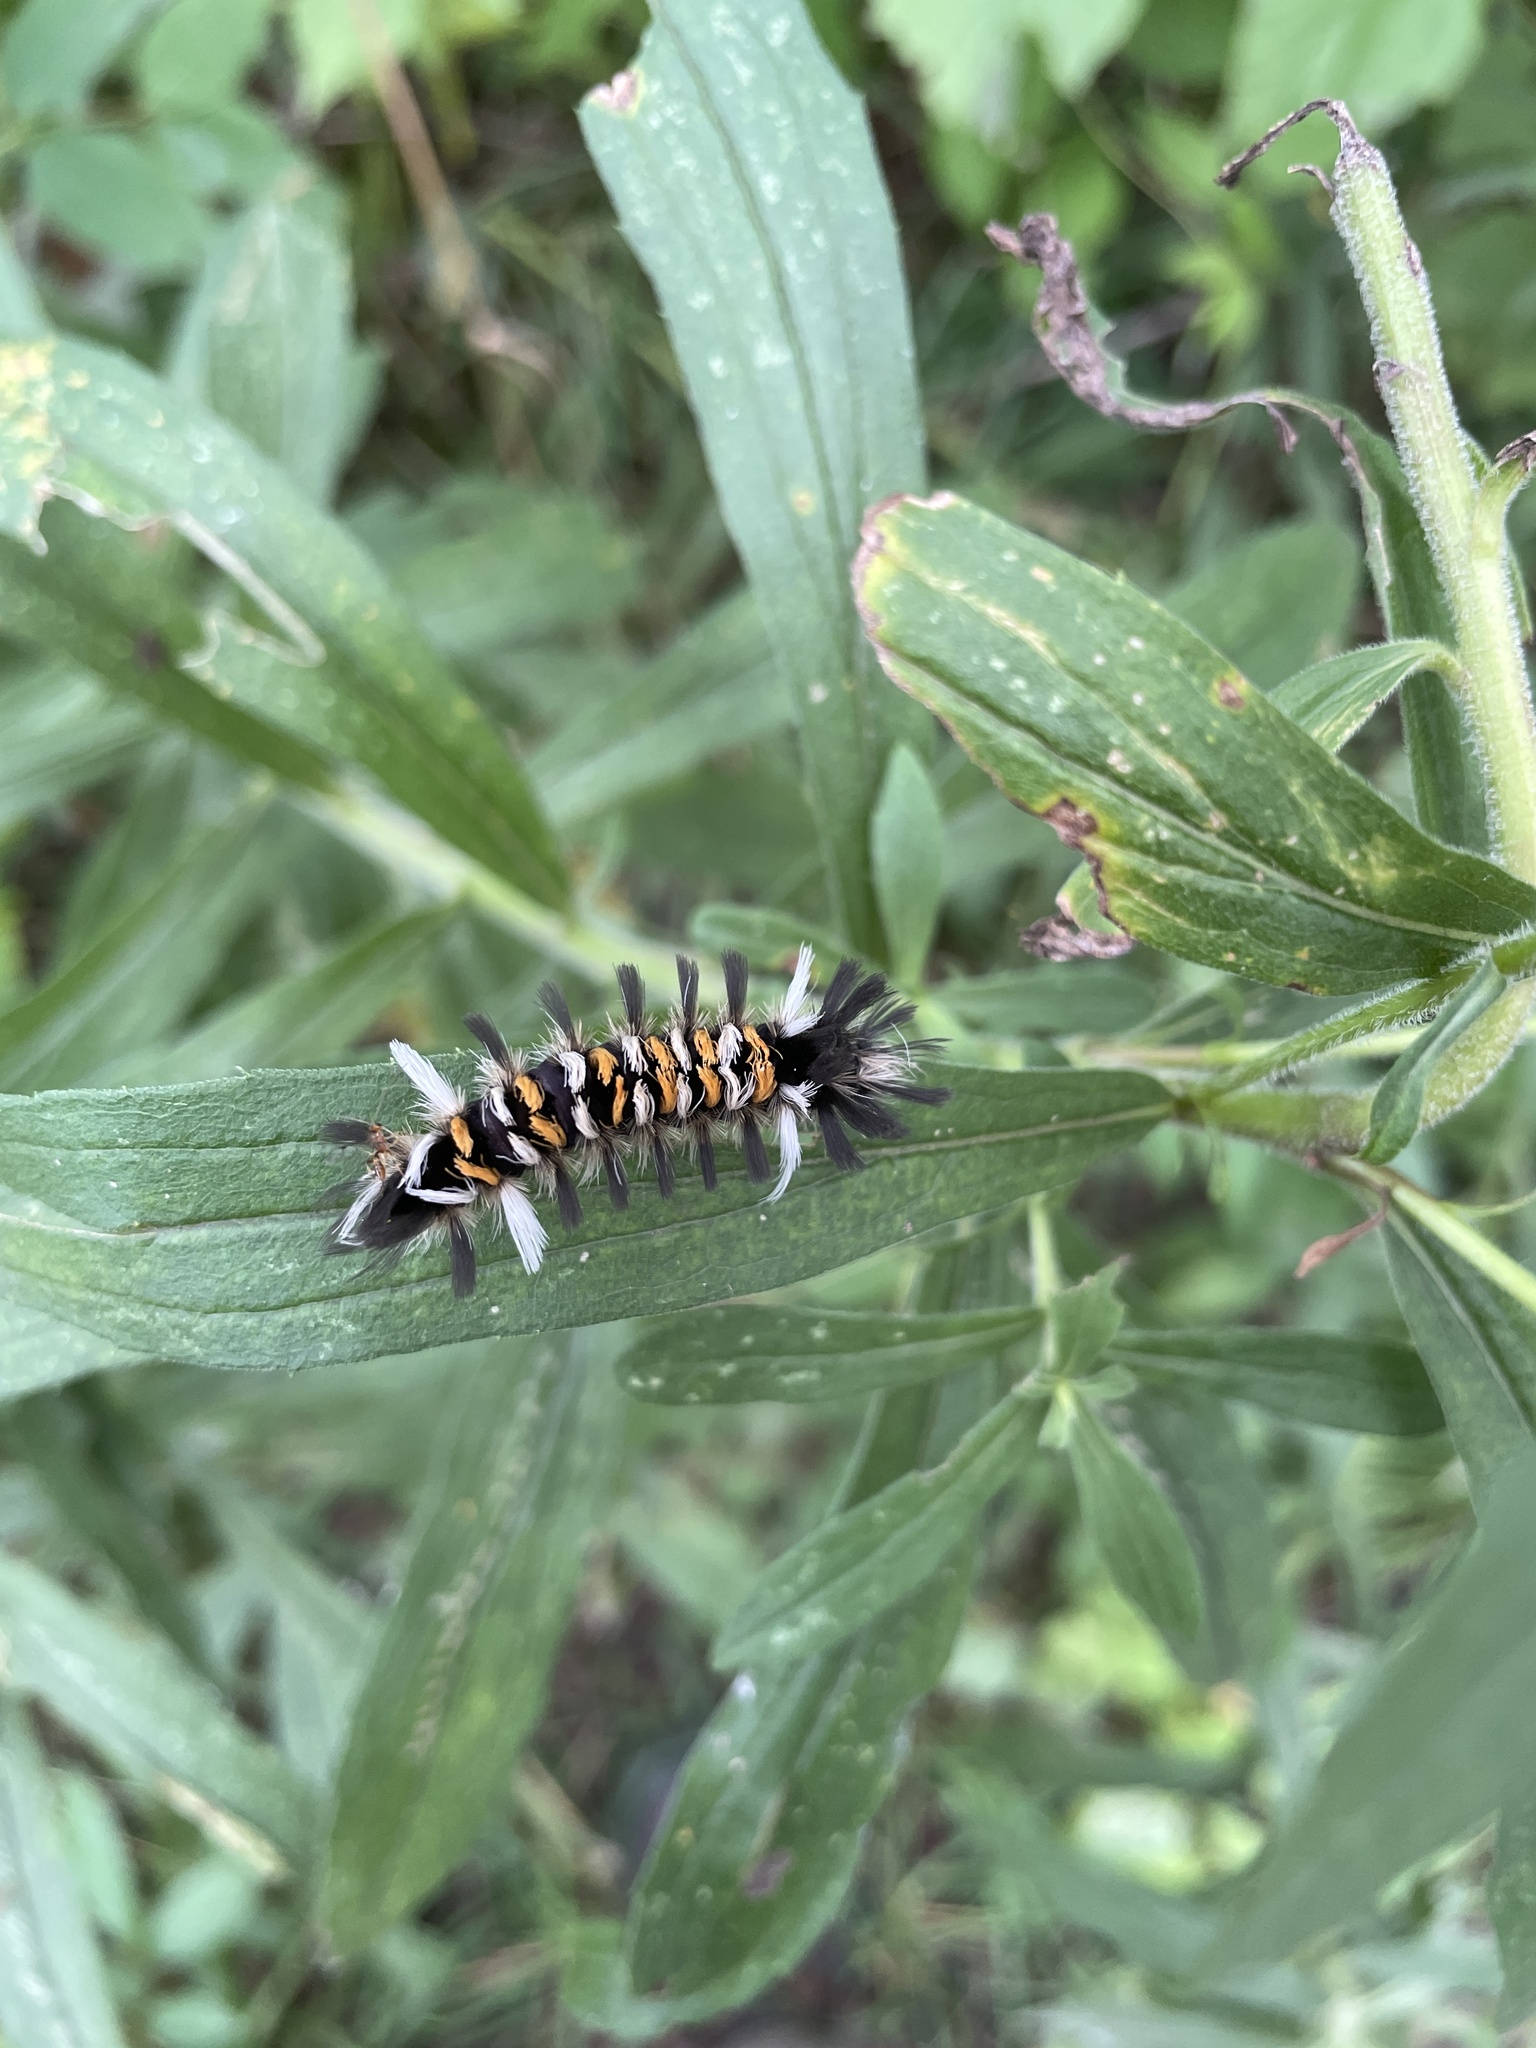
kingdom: Animalia
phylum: Arthropoda
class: Insecta
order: Lepidoptera
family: Erebidae
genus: Euchaetes
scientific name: Euchaetes egle
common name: Milkweed tussock moth
